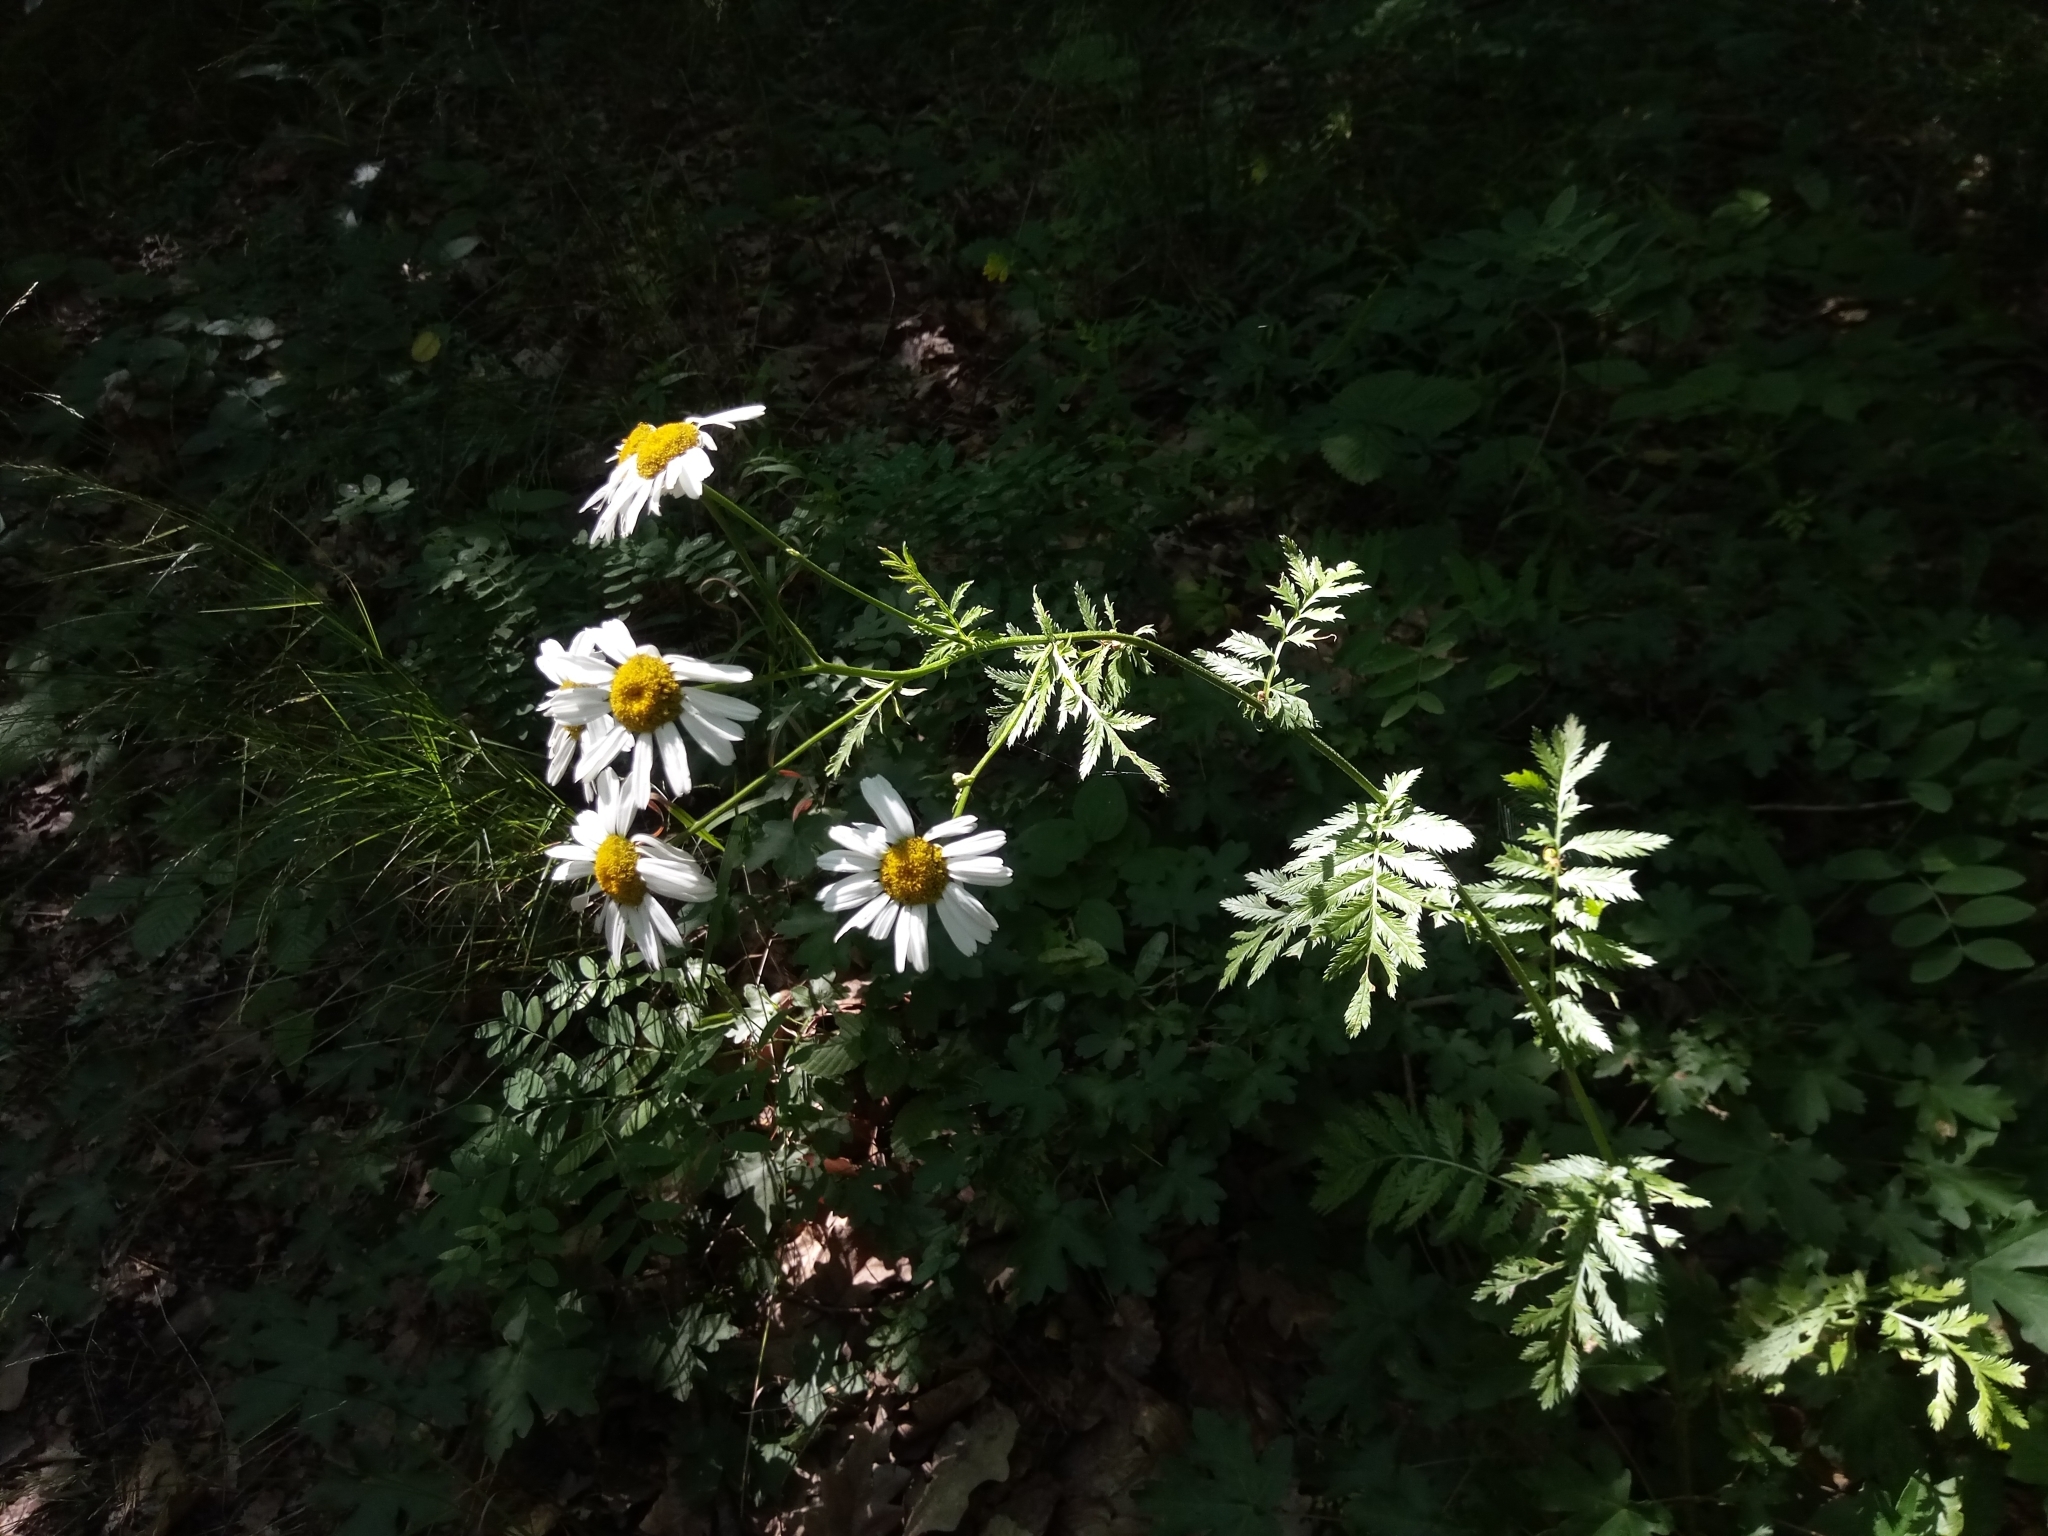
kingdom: Plantae
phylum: Tracheophyta
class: Magnoliopsida
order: Asterales
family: Asteraceae
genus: Tanacetum
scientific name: Tanacetum corymbosum
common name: Scentless feverfew
